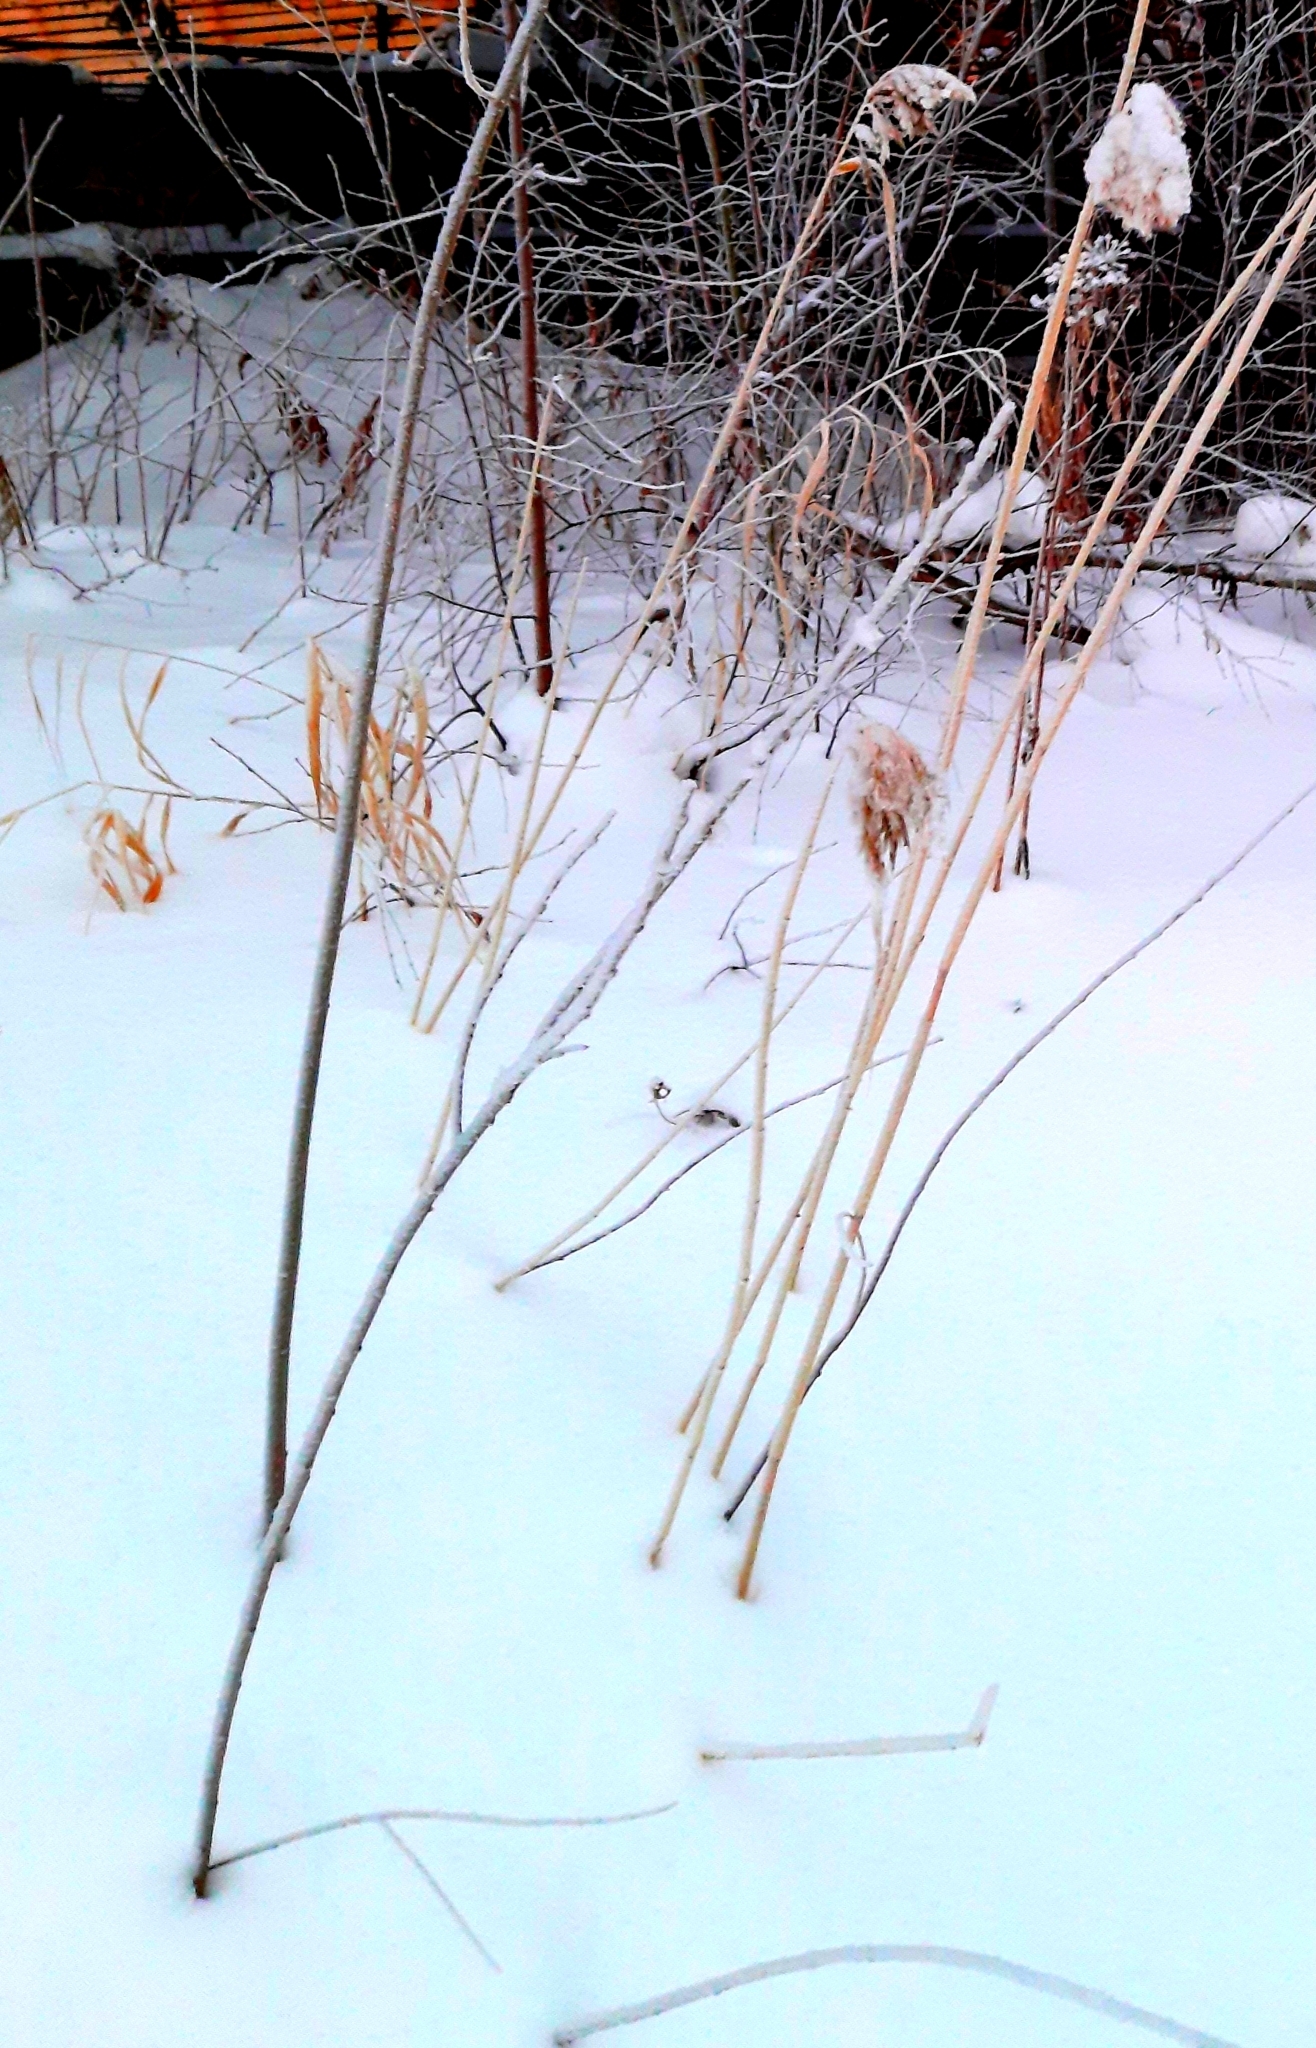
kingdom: Plantae
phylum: Tracheophyta
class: Liliopsida
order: Poales
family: Poaceae
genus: Phragmites
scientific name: Phragmites australis
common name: Common reed
